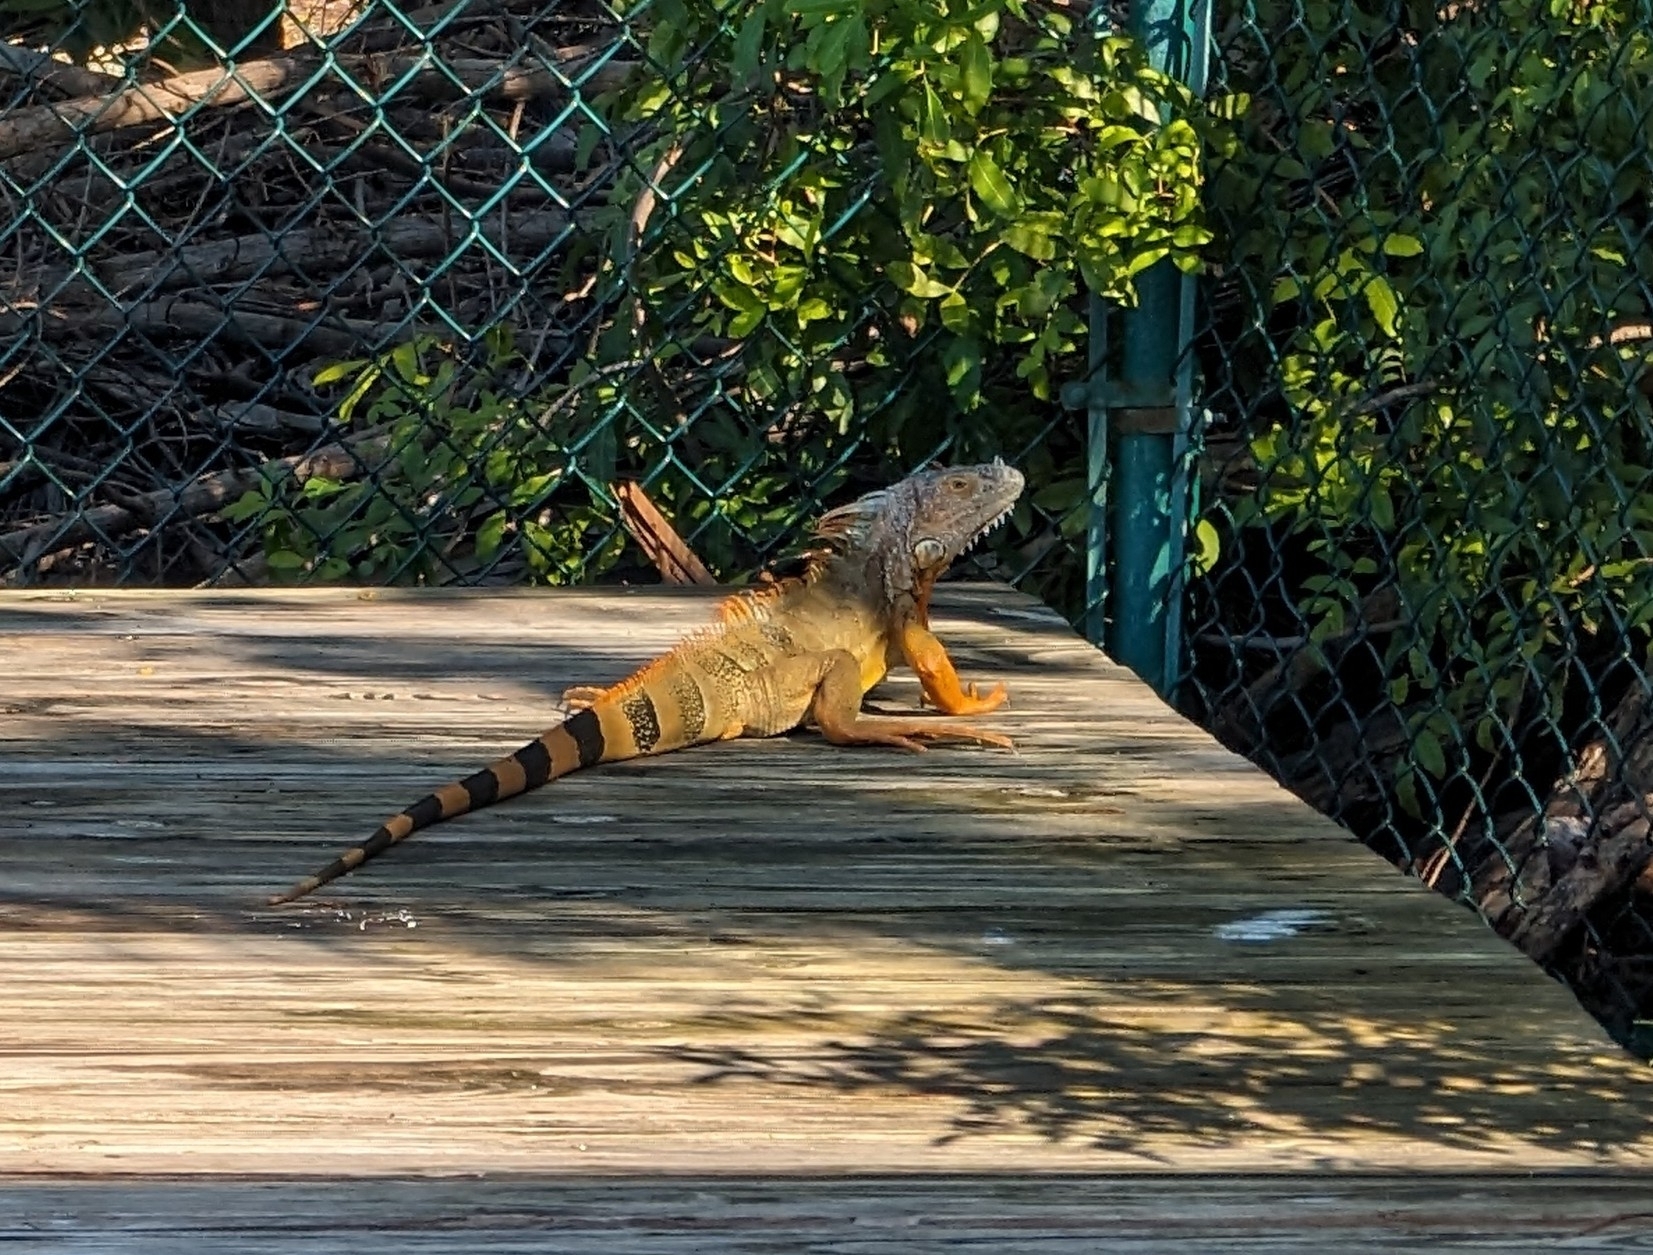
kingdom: Animalia
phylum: Chordata
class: Squamata
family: Iguanidae
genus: Iguana
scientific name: Iguana iguana
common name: Green iguana
